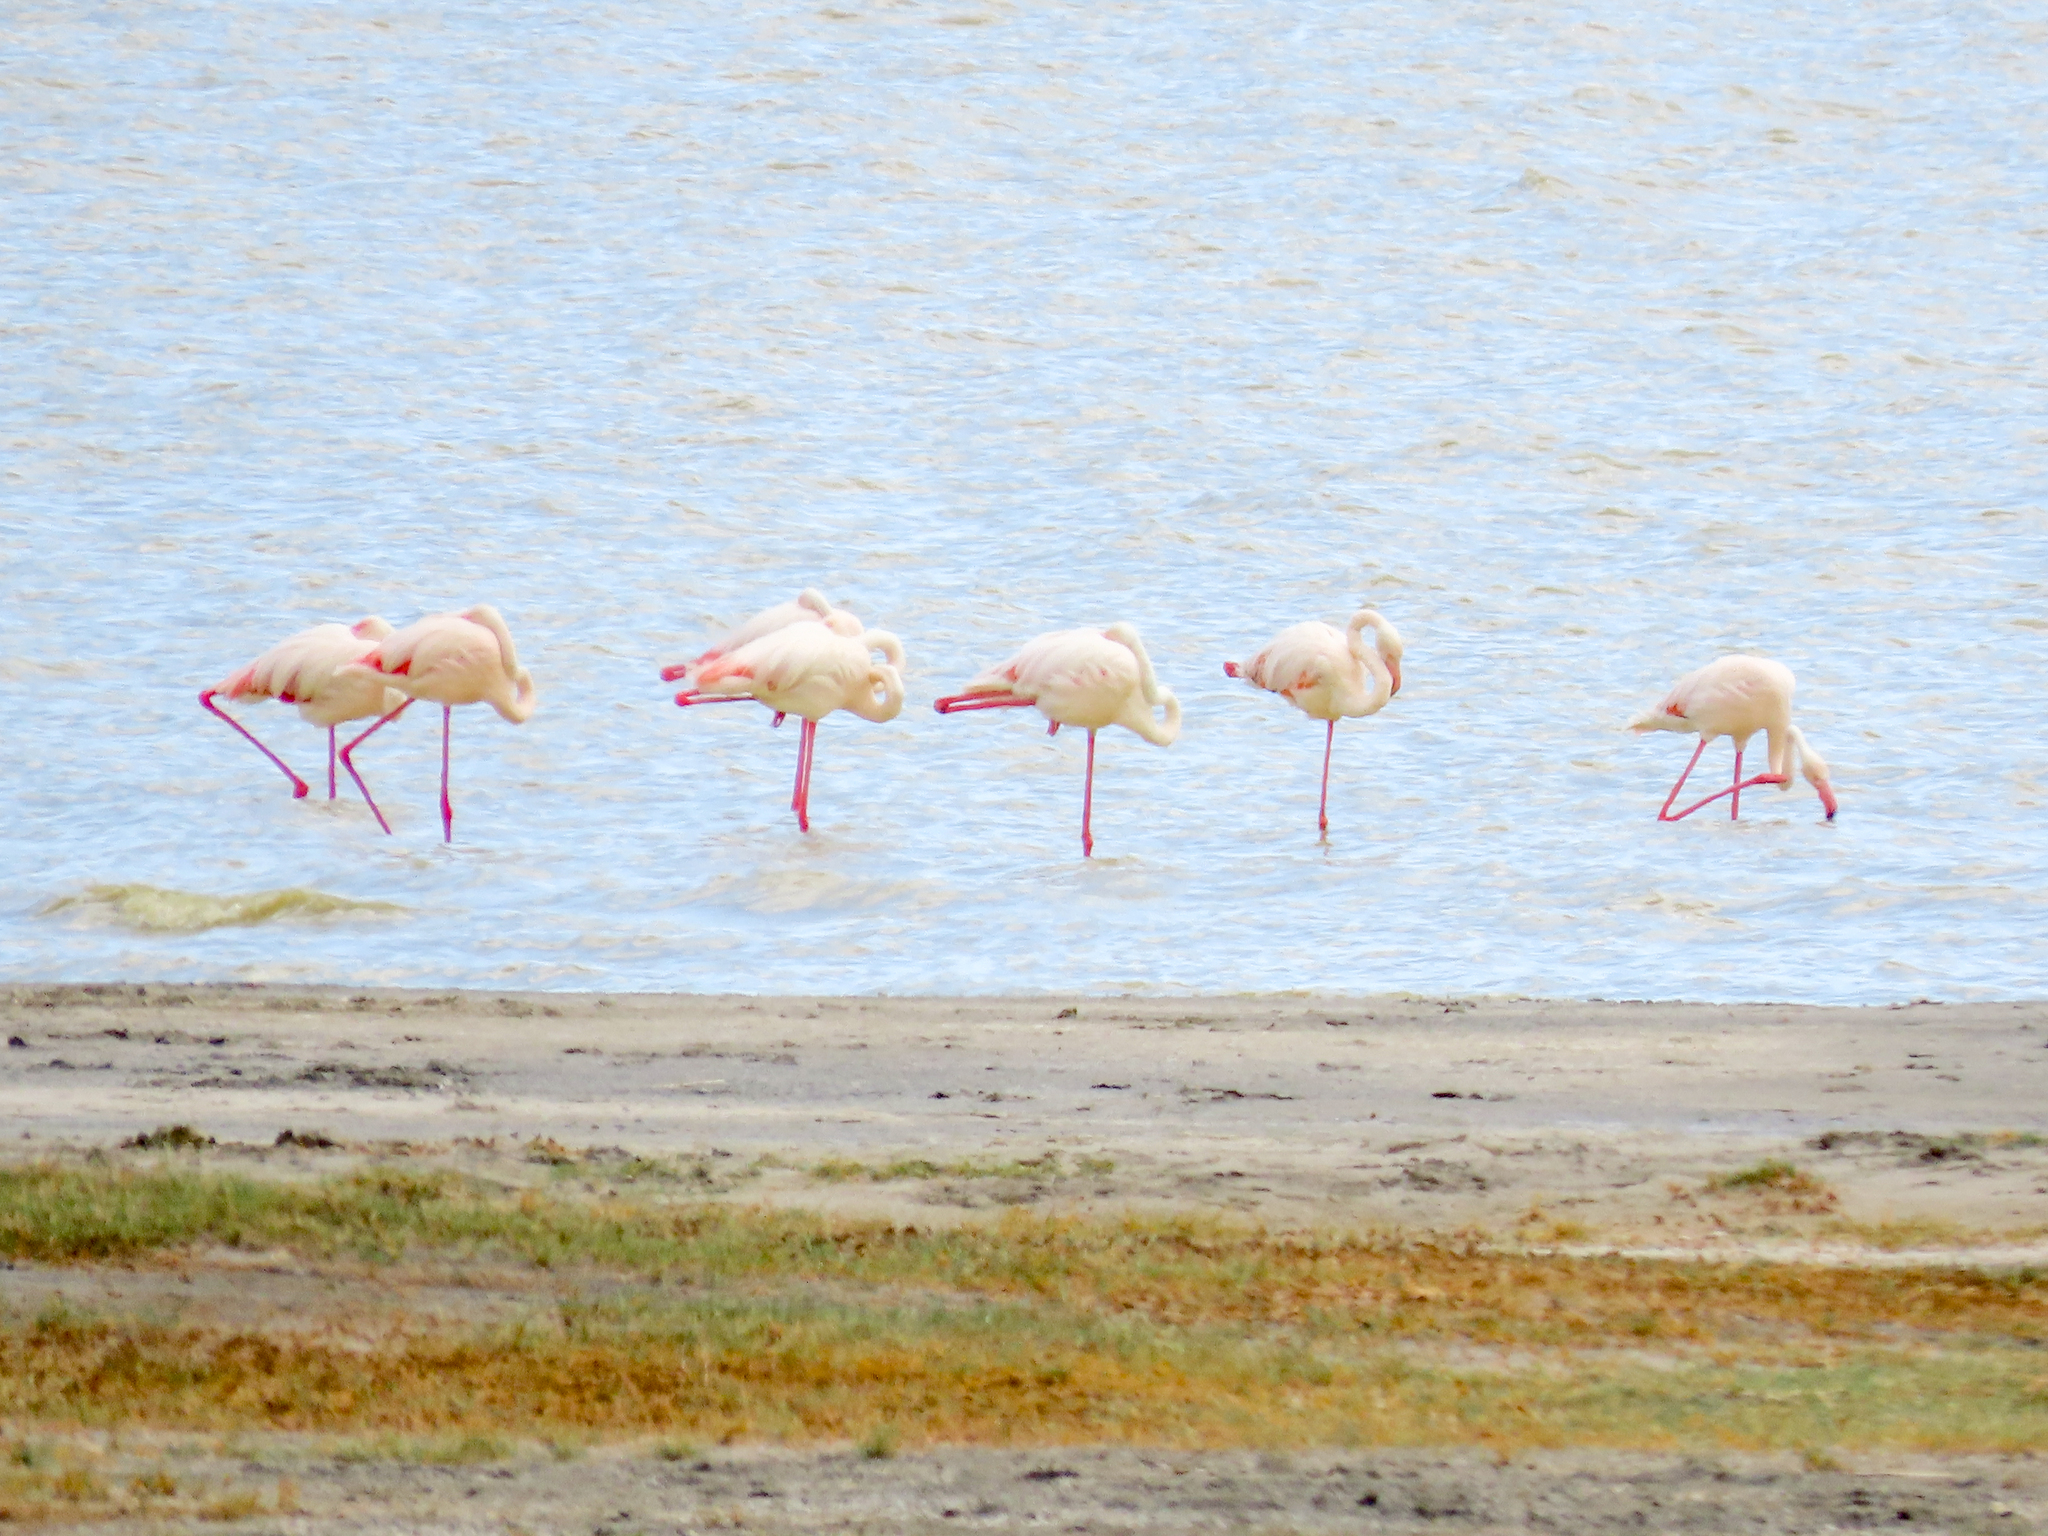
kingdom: Animalia
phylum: Chordata
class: Aves
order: Phoenicopteriformes
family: Phoenicopteridae
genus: Phoenicopterus
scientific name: Phoenicopterus roseus
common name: Greater flamingo
